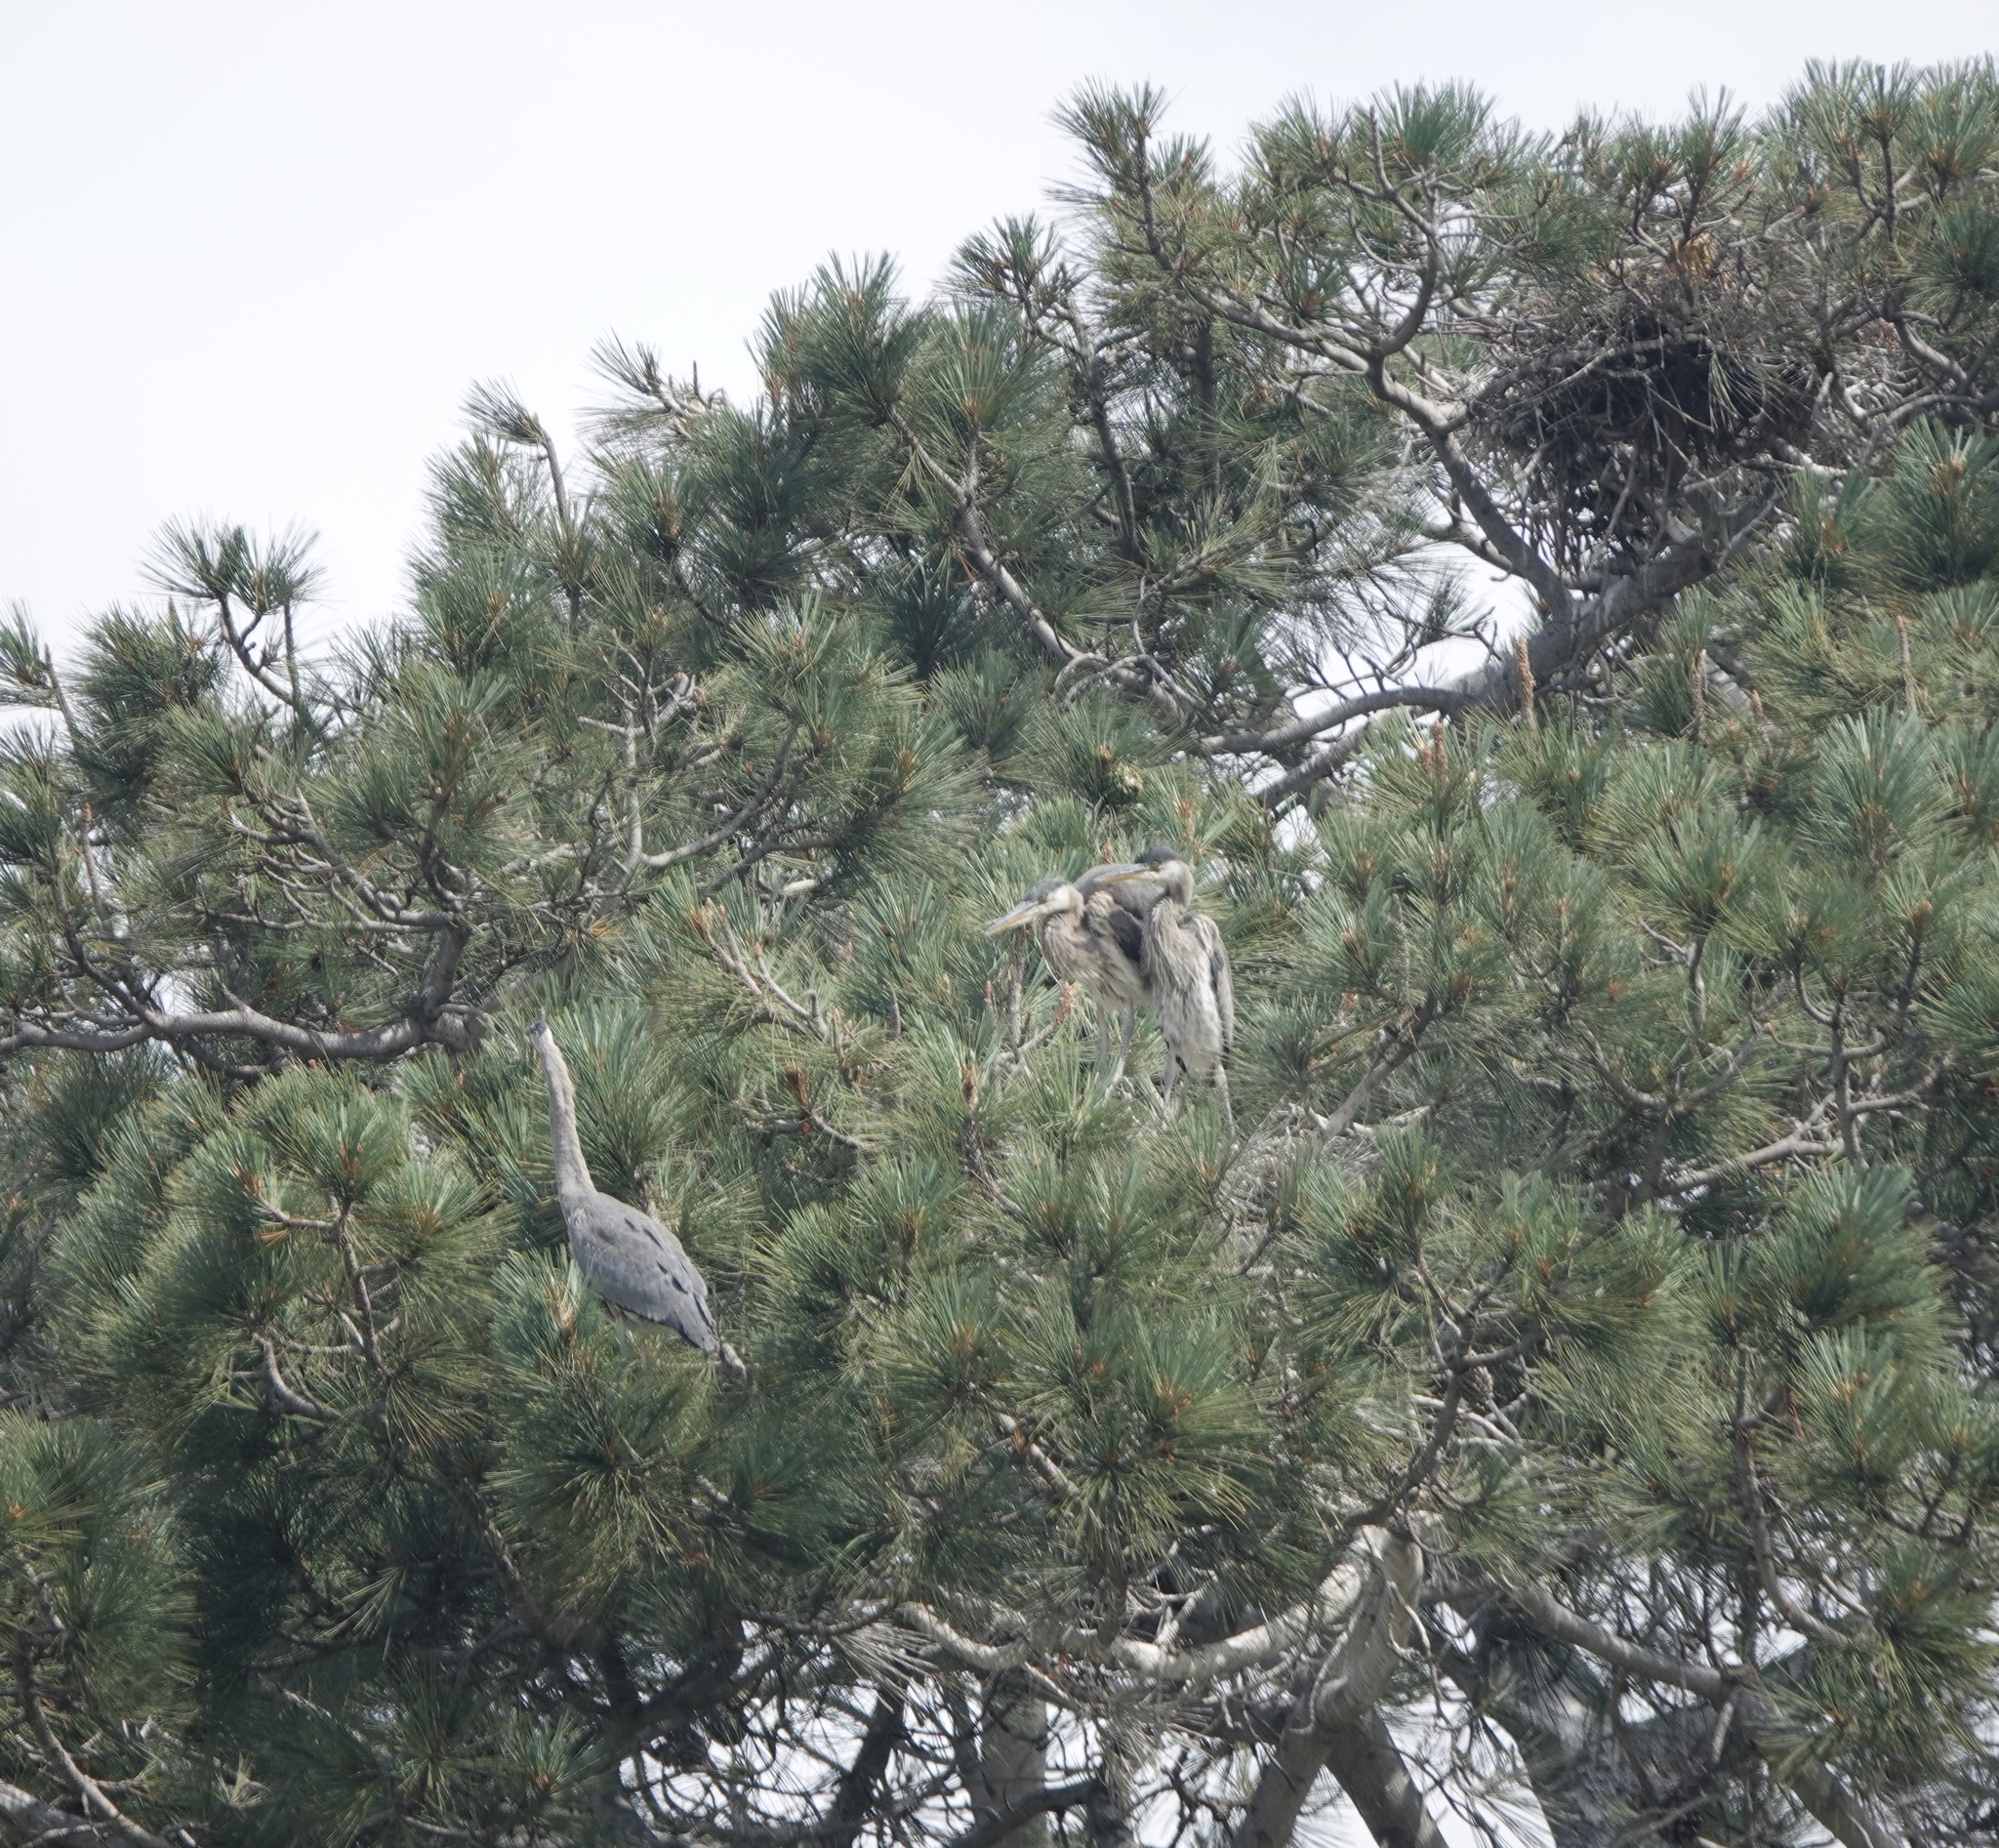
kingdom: Animalia
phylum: Chordata
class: Aves
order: Pelecaniformes
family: Ardeidae
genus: Ardea
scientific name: Ardea herodias
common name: Great blue heron
